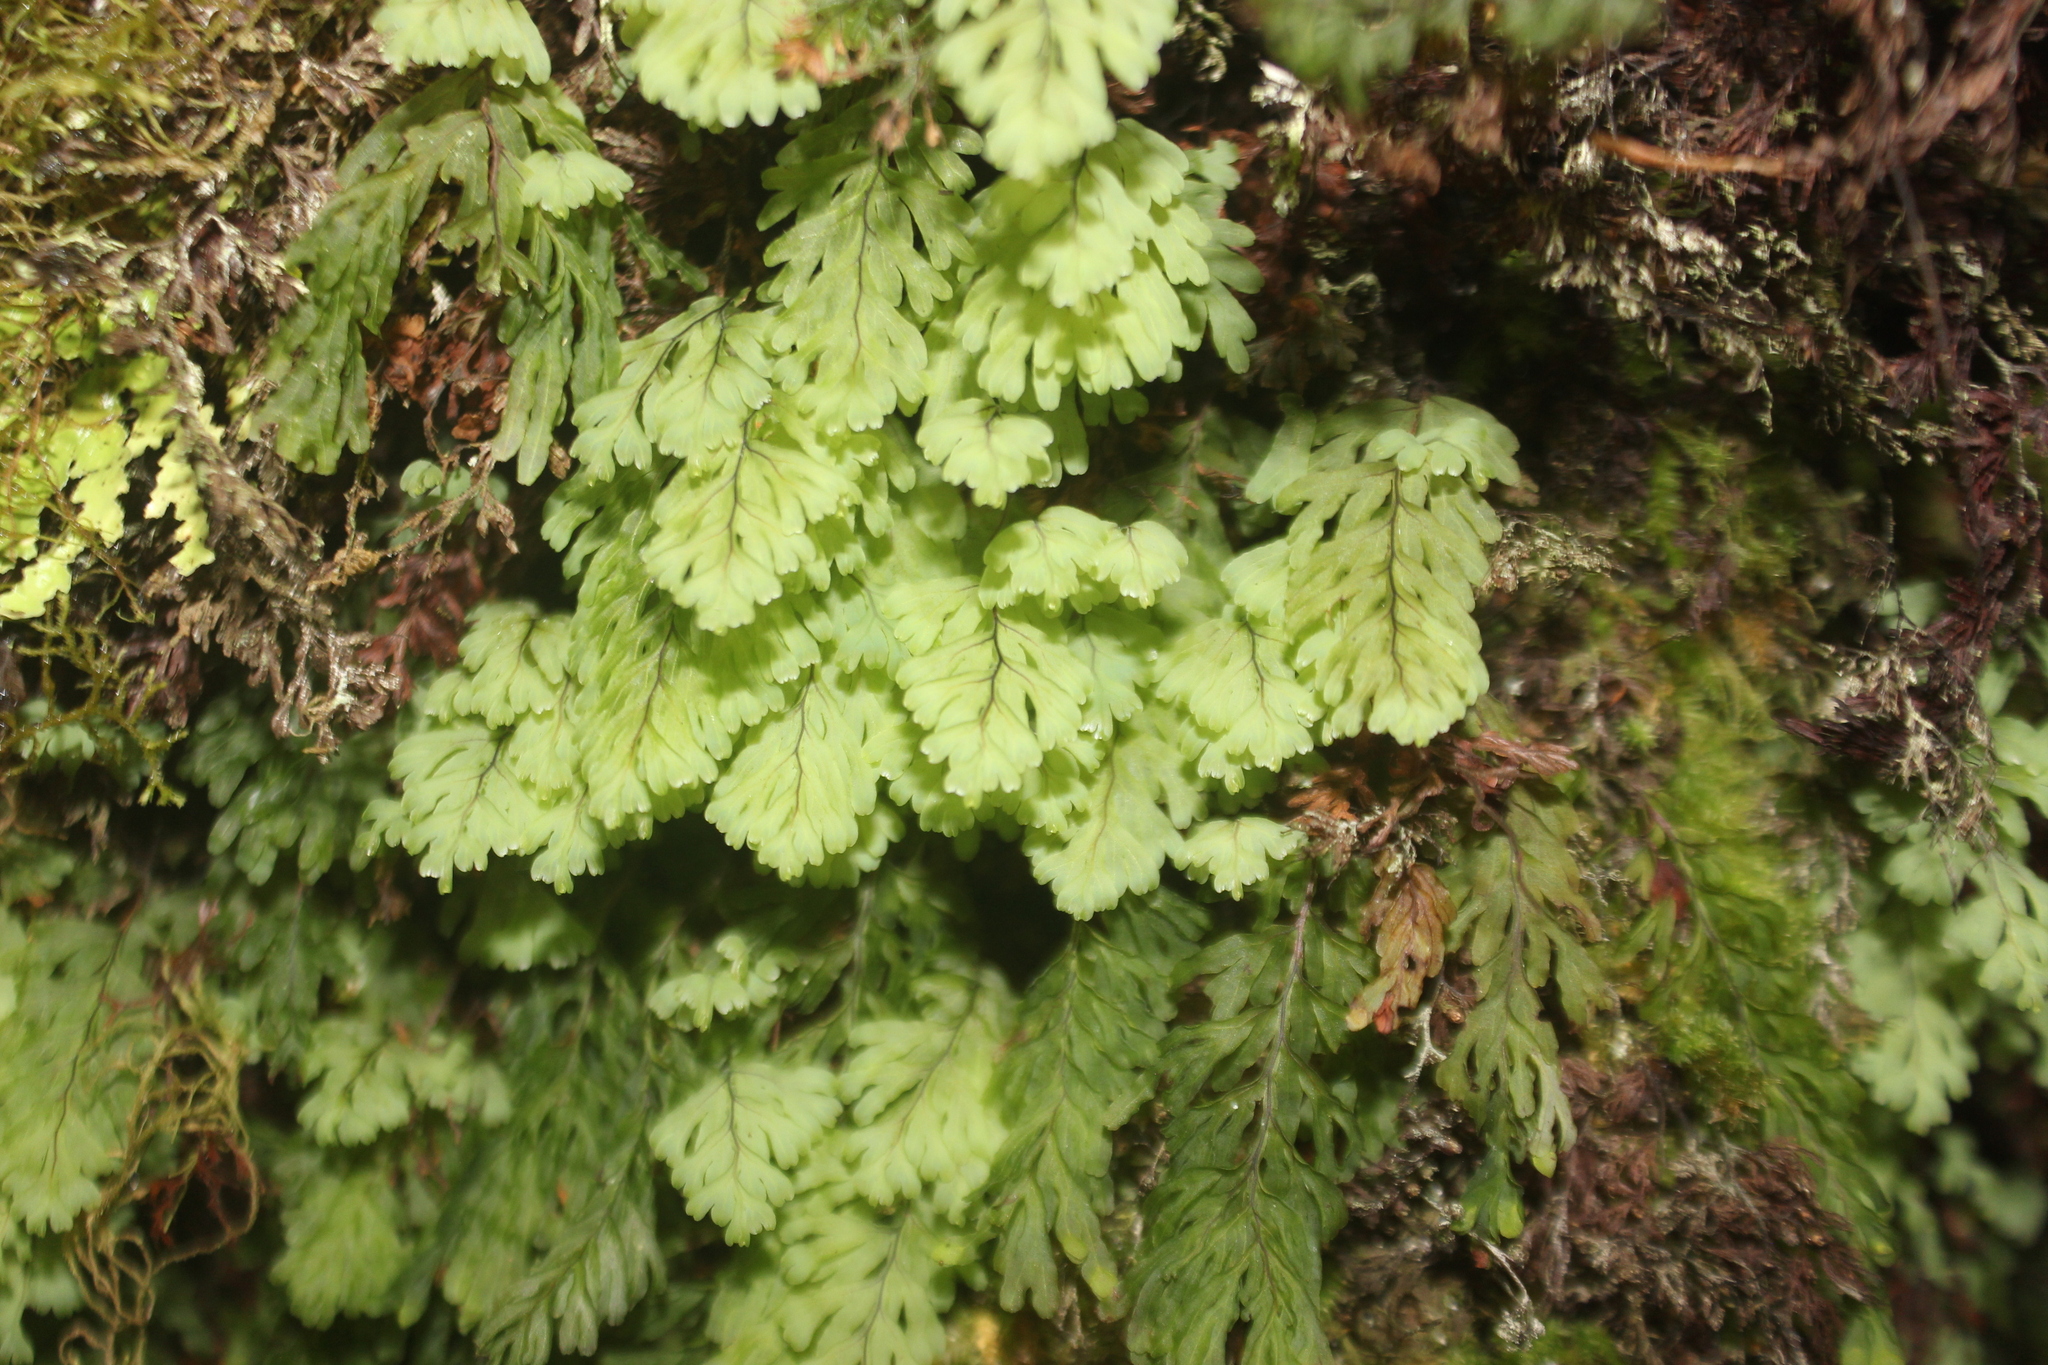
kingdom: Plantae
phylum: Tracheophyta
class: Polypodiopsida
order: Hymenophyllales
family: Hymenophyllaceae
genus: Hymenophyllum
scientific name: Hymenophyllum rarum
